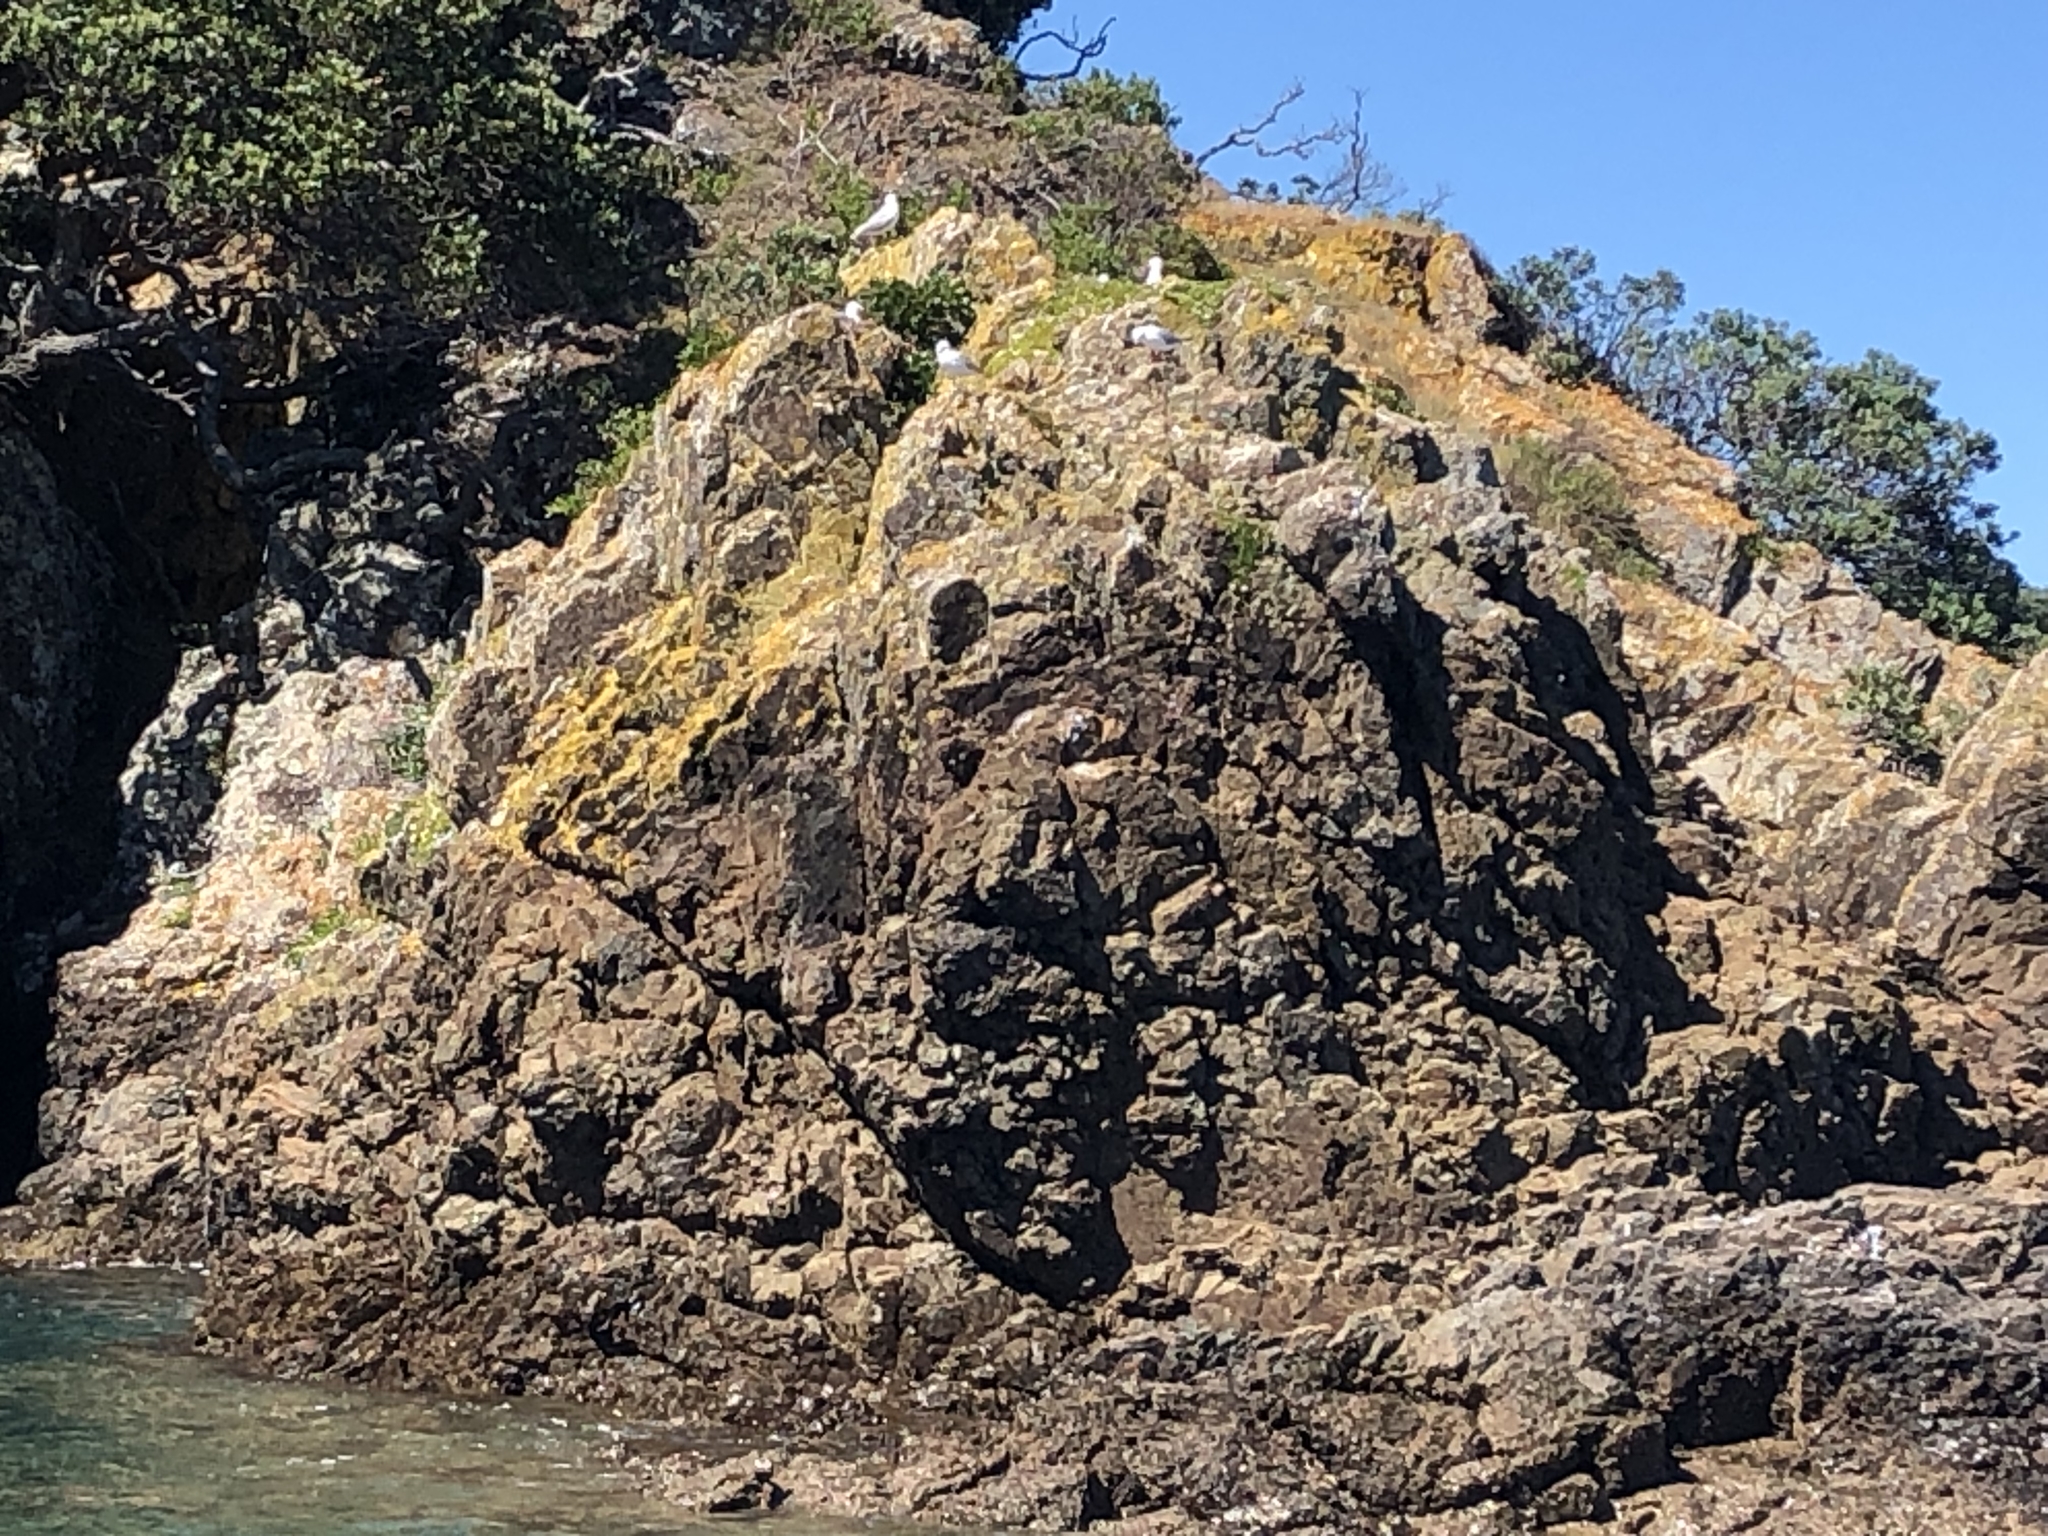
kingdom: Animalia
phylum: Chordata
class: Aves
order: Charadriiformes
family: Laridae
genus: Chroicocephalus
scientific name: Chroicocephalus novaehollandiae
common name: Silver gull
